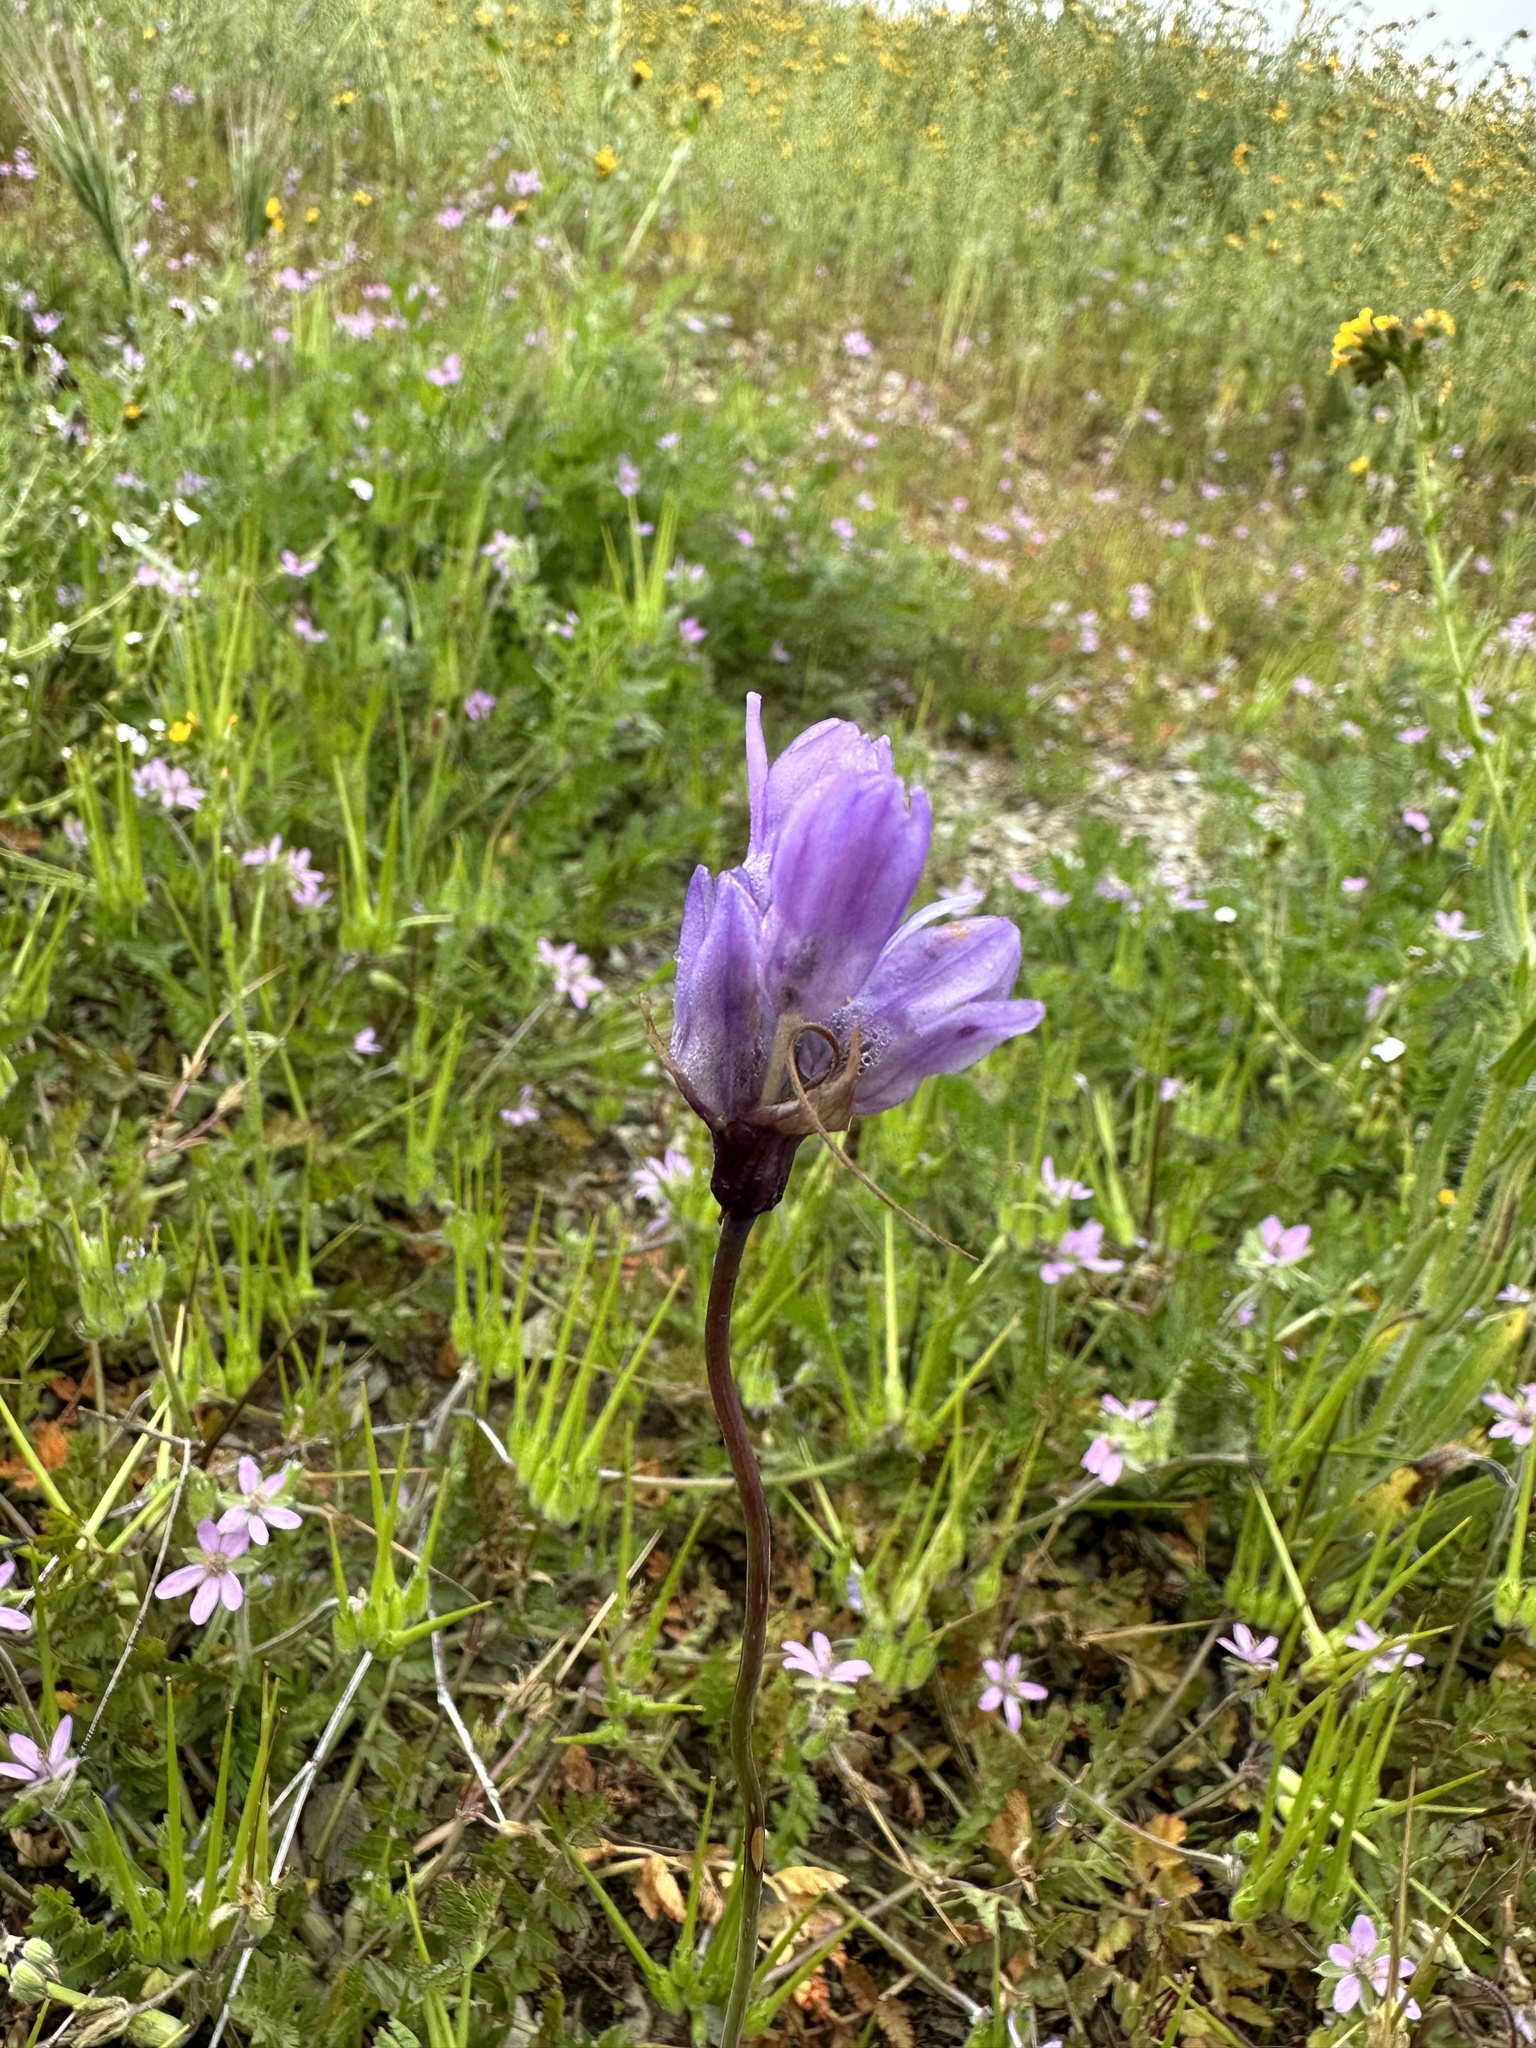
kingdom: Plantae
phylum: Tracheophyta
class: Liliopsida
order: Asparagales
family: Asparagaceae
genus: Dipterostemon
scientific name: Dipterostemon capitatus
